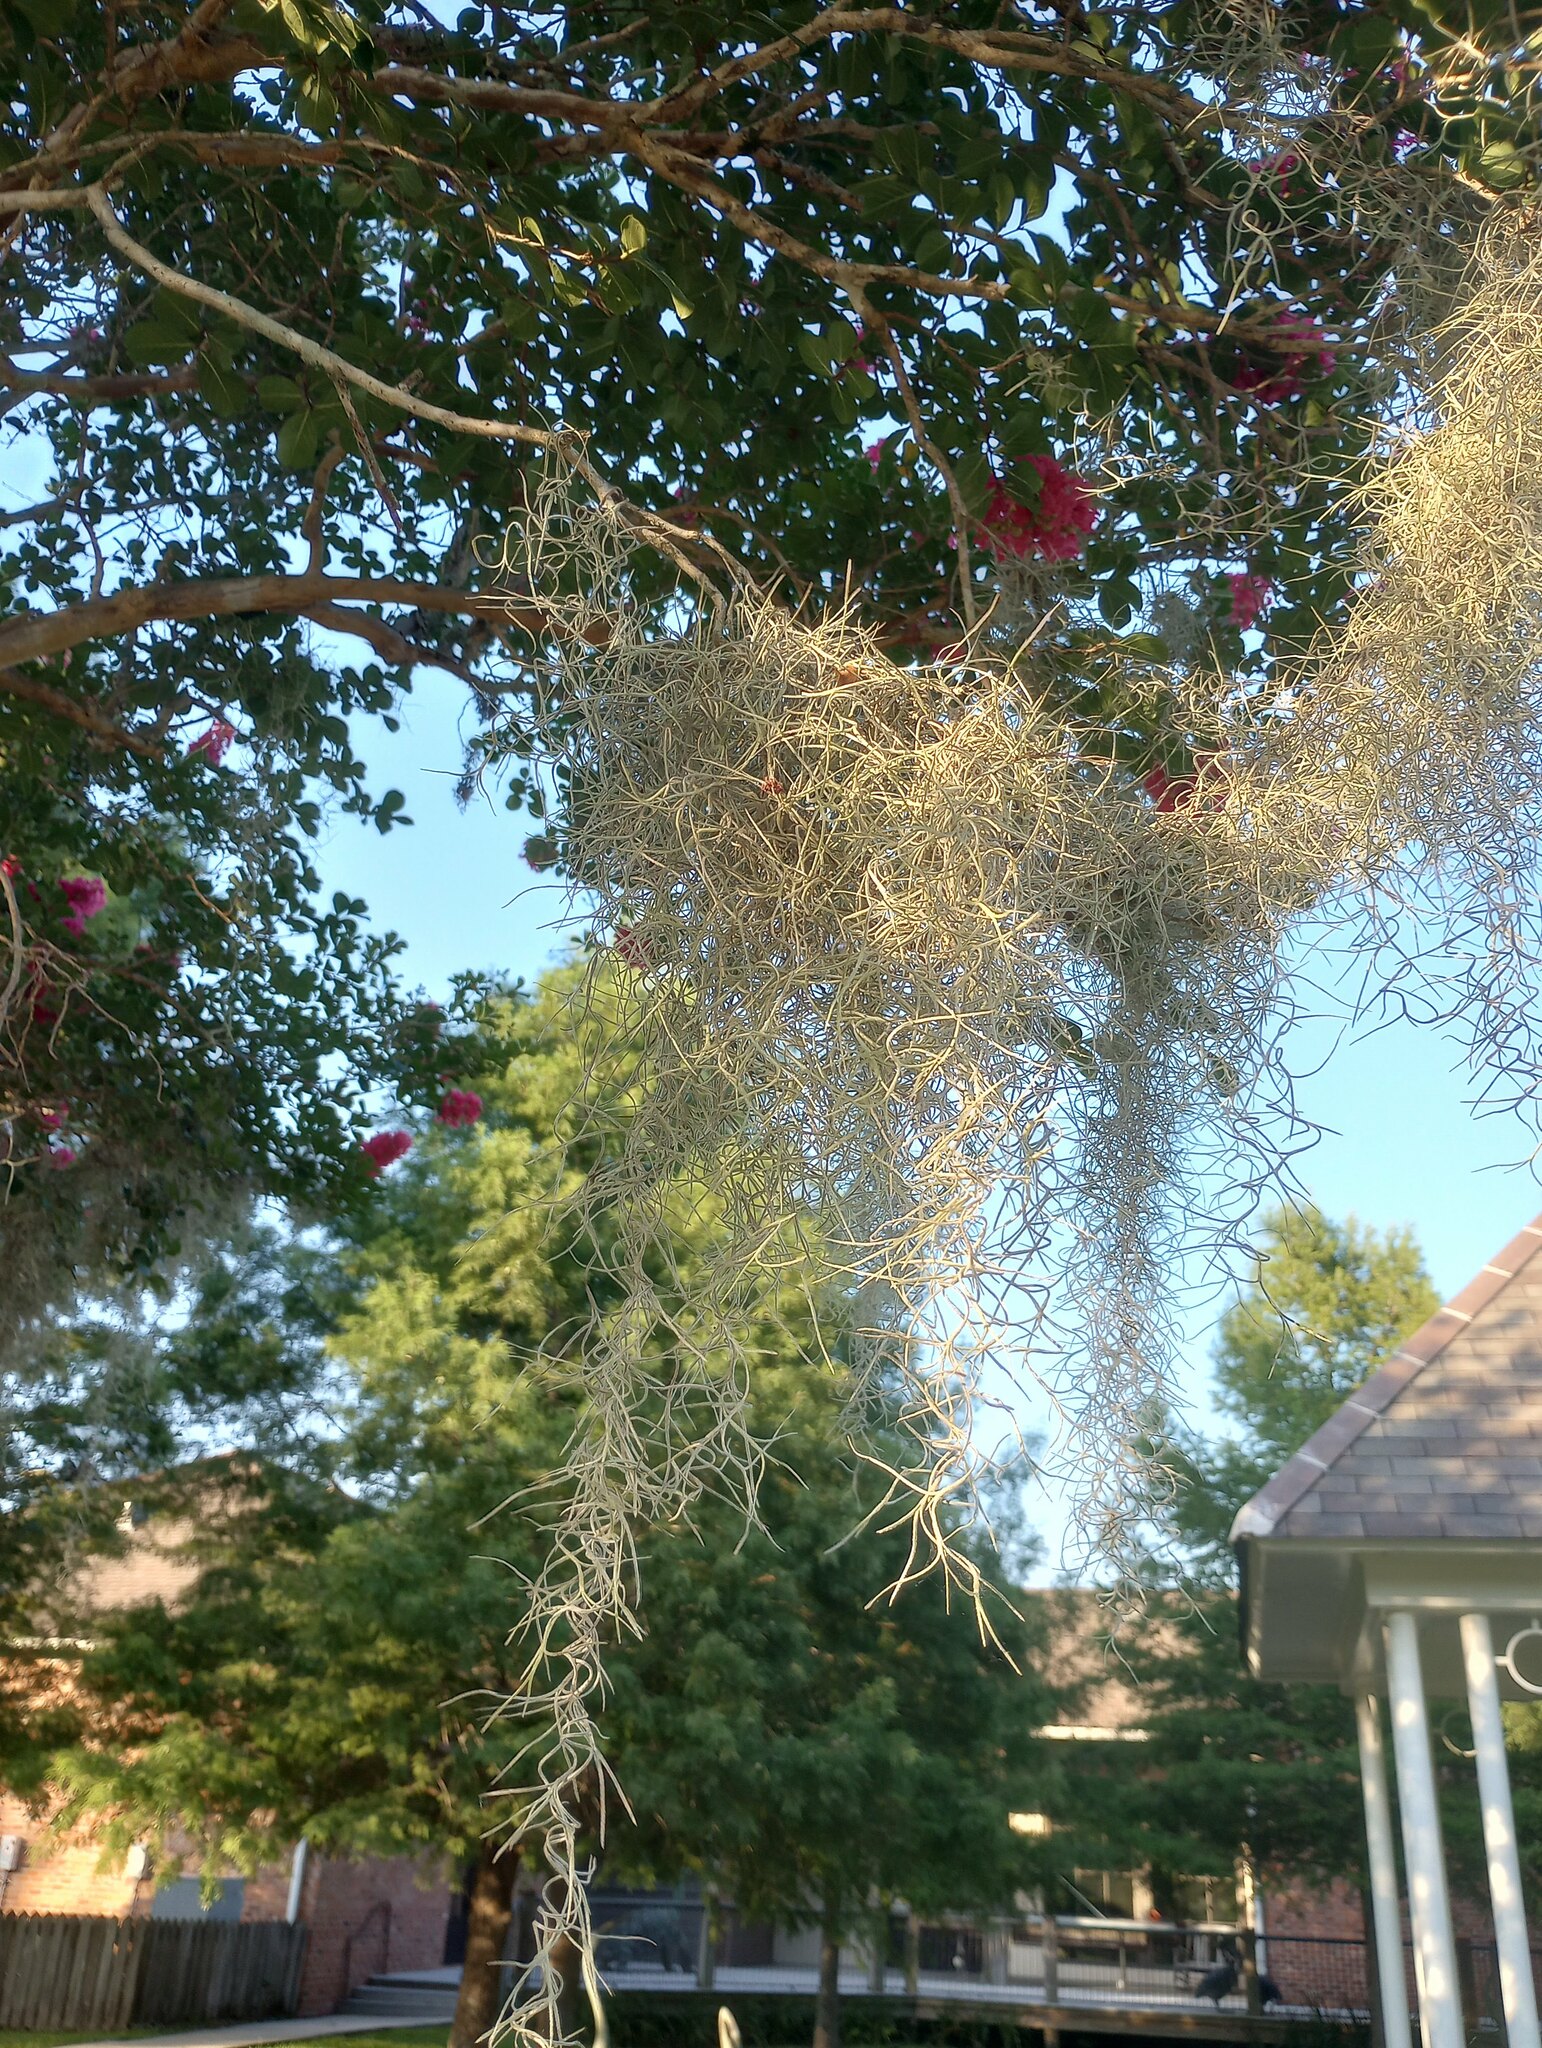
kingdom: Plantae
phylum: Tracheophyta
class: Liliopsida
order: Poales
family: Bromeliaceae
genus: Tillandsia
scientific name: Tillandsia usneoides
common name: Spanish moss
